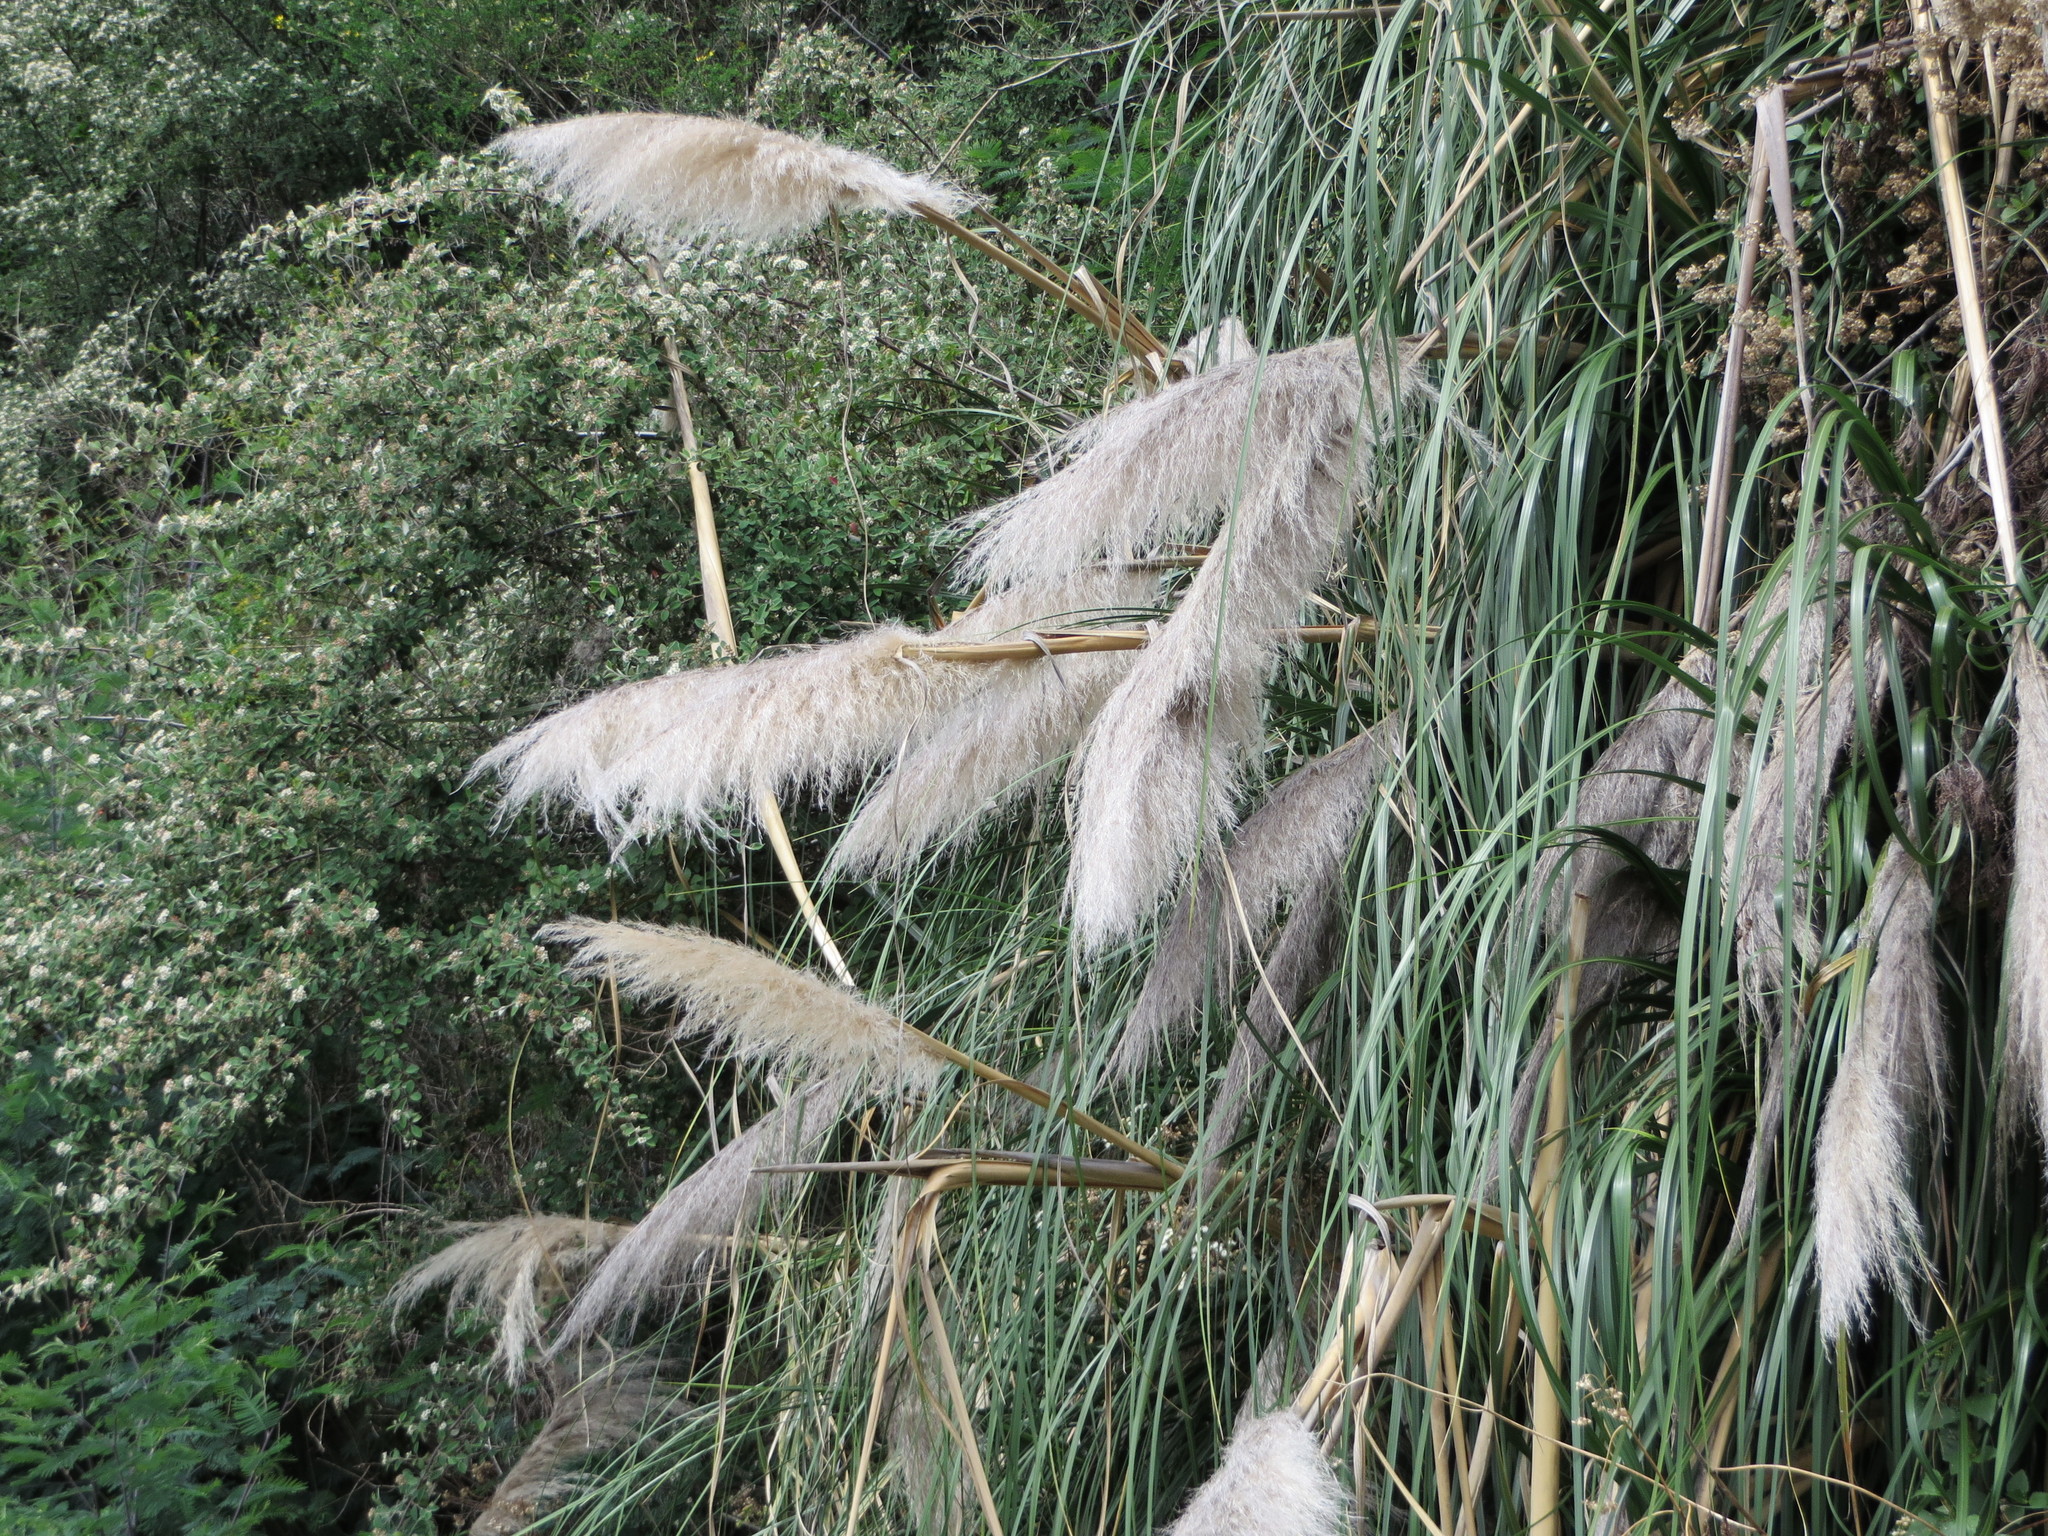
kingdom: Plantae
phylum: Tracheophyta
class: Liliopsida
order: Poales
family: Poaceae
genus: Cortaderia
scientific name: Cortaderia selloana
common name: Uruguayan pampas grass
